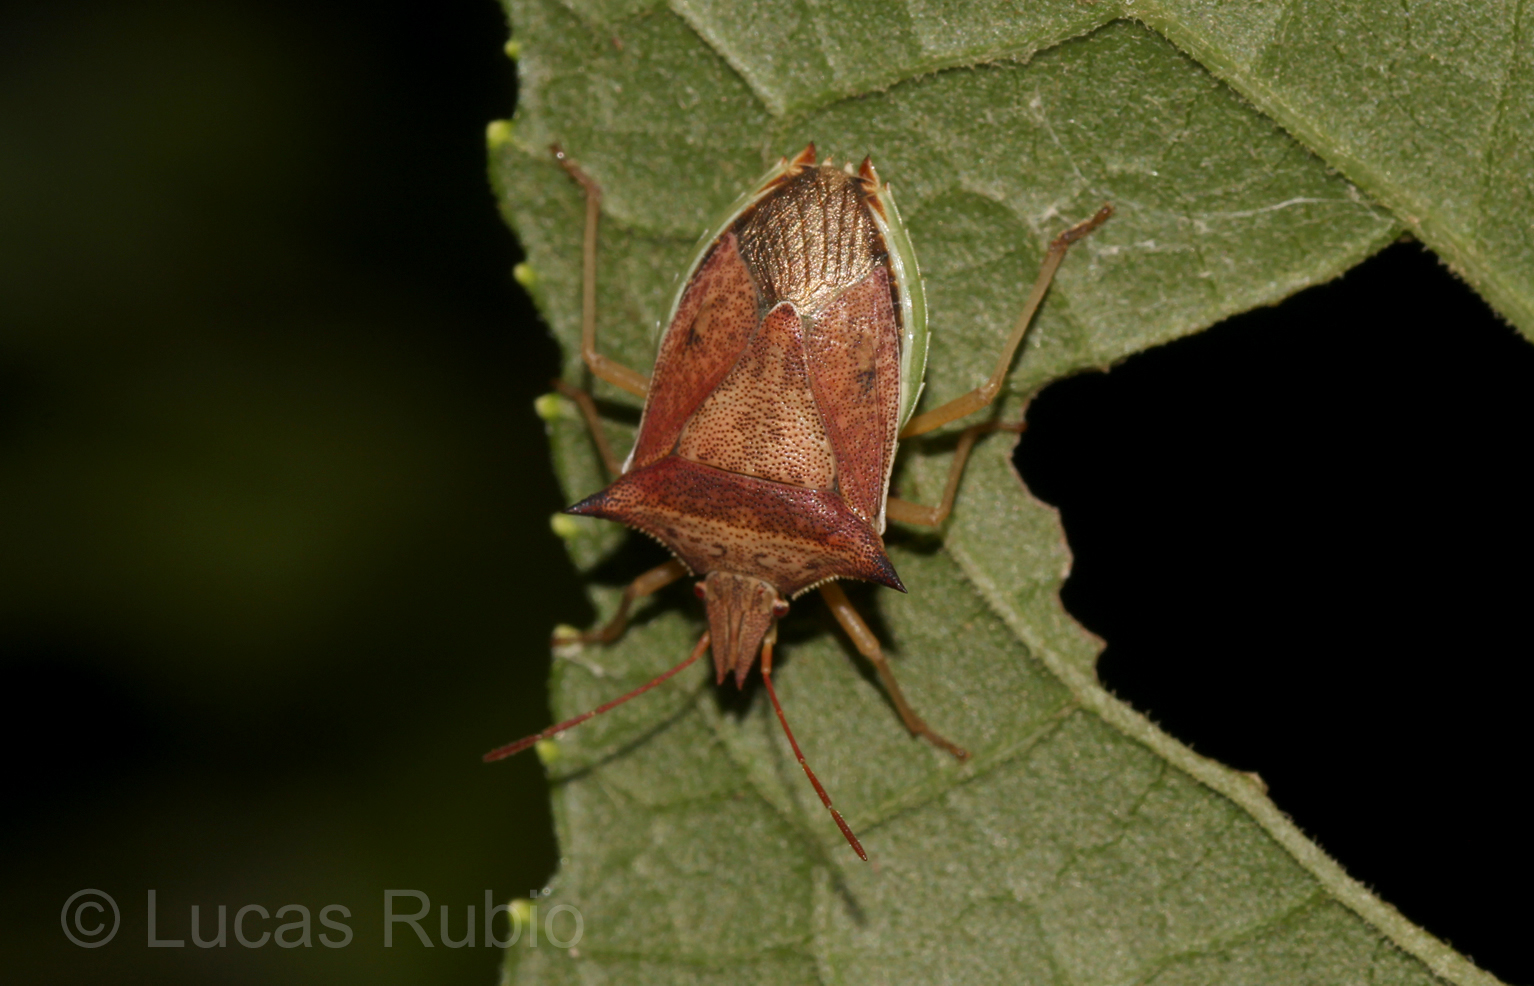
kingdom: Animalia
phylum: Arthropoda
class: Insecta
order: Hemiptera
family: Pentatomidae
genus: Diceraeus
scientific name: Diceraeus melacanthus
